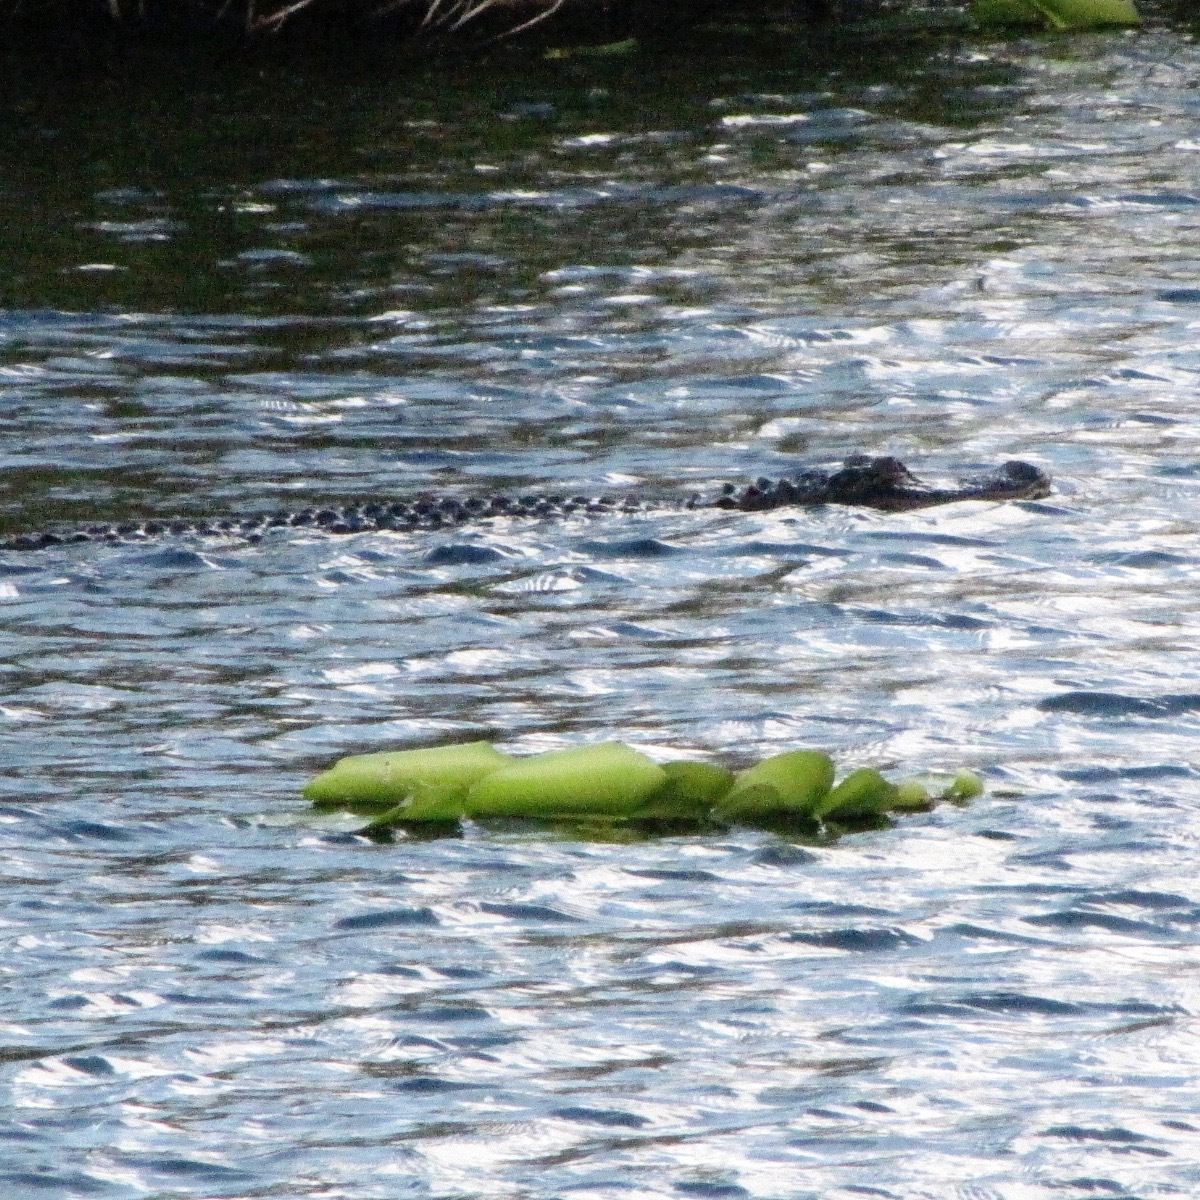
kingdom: Animalia
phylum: Chordata
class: Crocodylia
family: Alligatoridae
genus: Alligator
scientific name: Alligator mississippiensis
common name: American alligator
